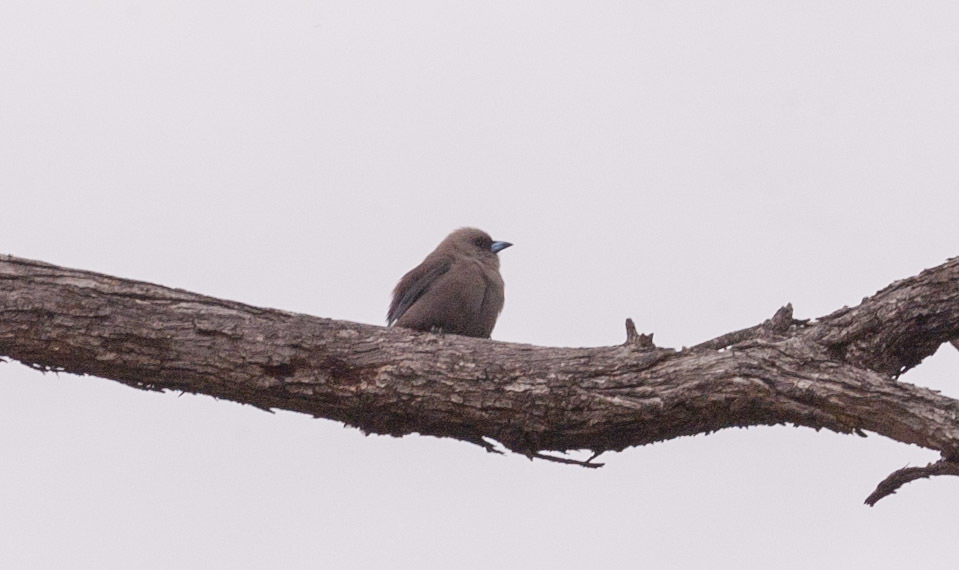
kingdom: Animalia
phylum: Chordata
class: Aves
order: Passeriformes
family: Artamidae
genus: Artamus
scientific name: Artamus cyanopterus
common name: Dusky woodswallow
